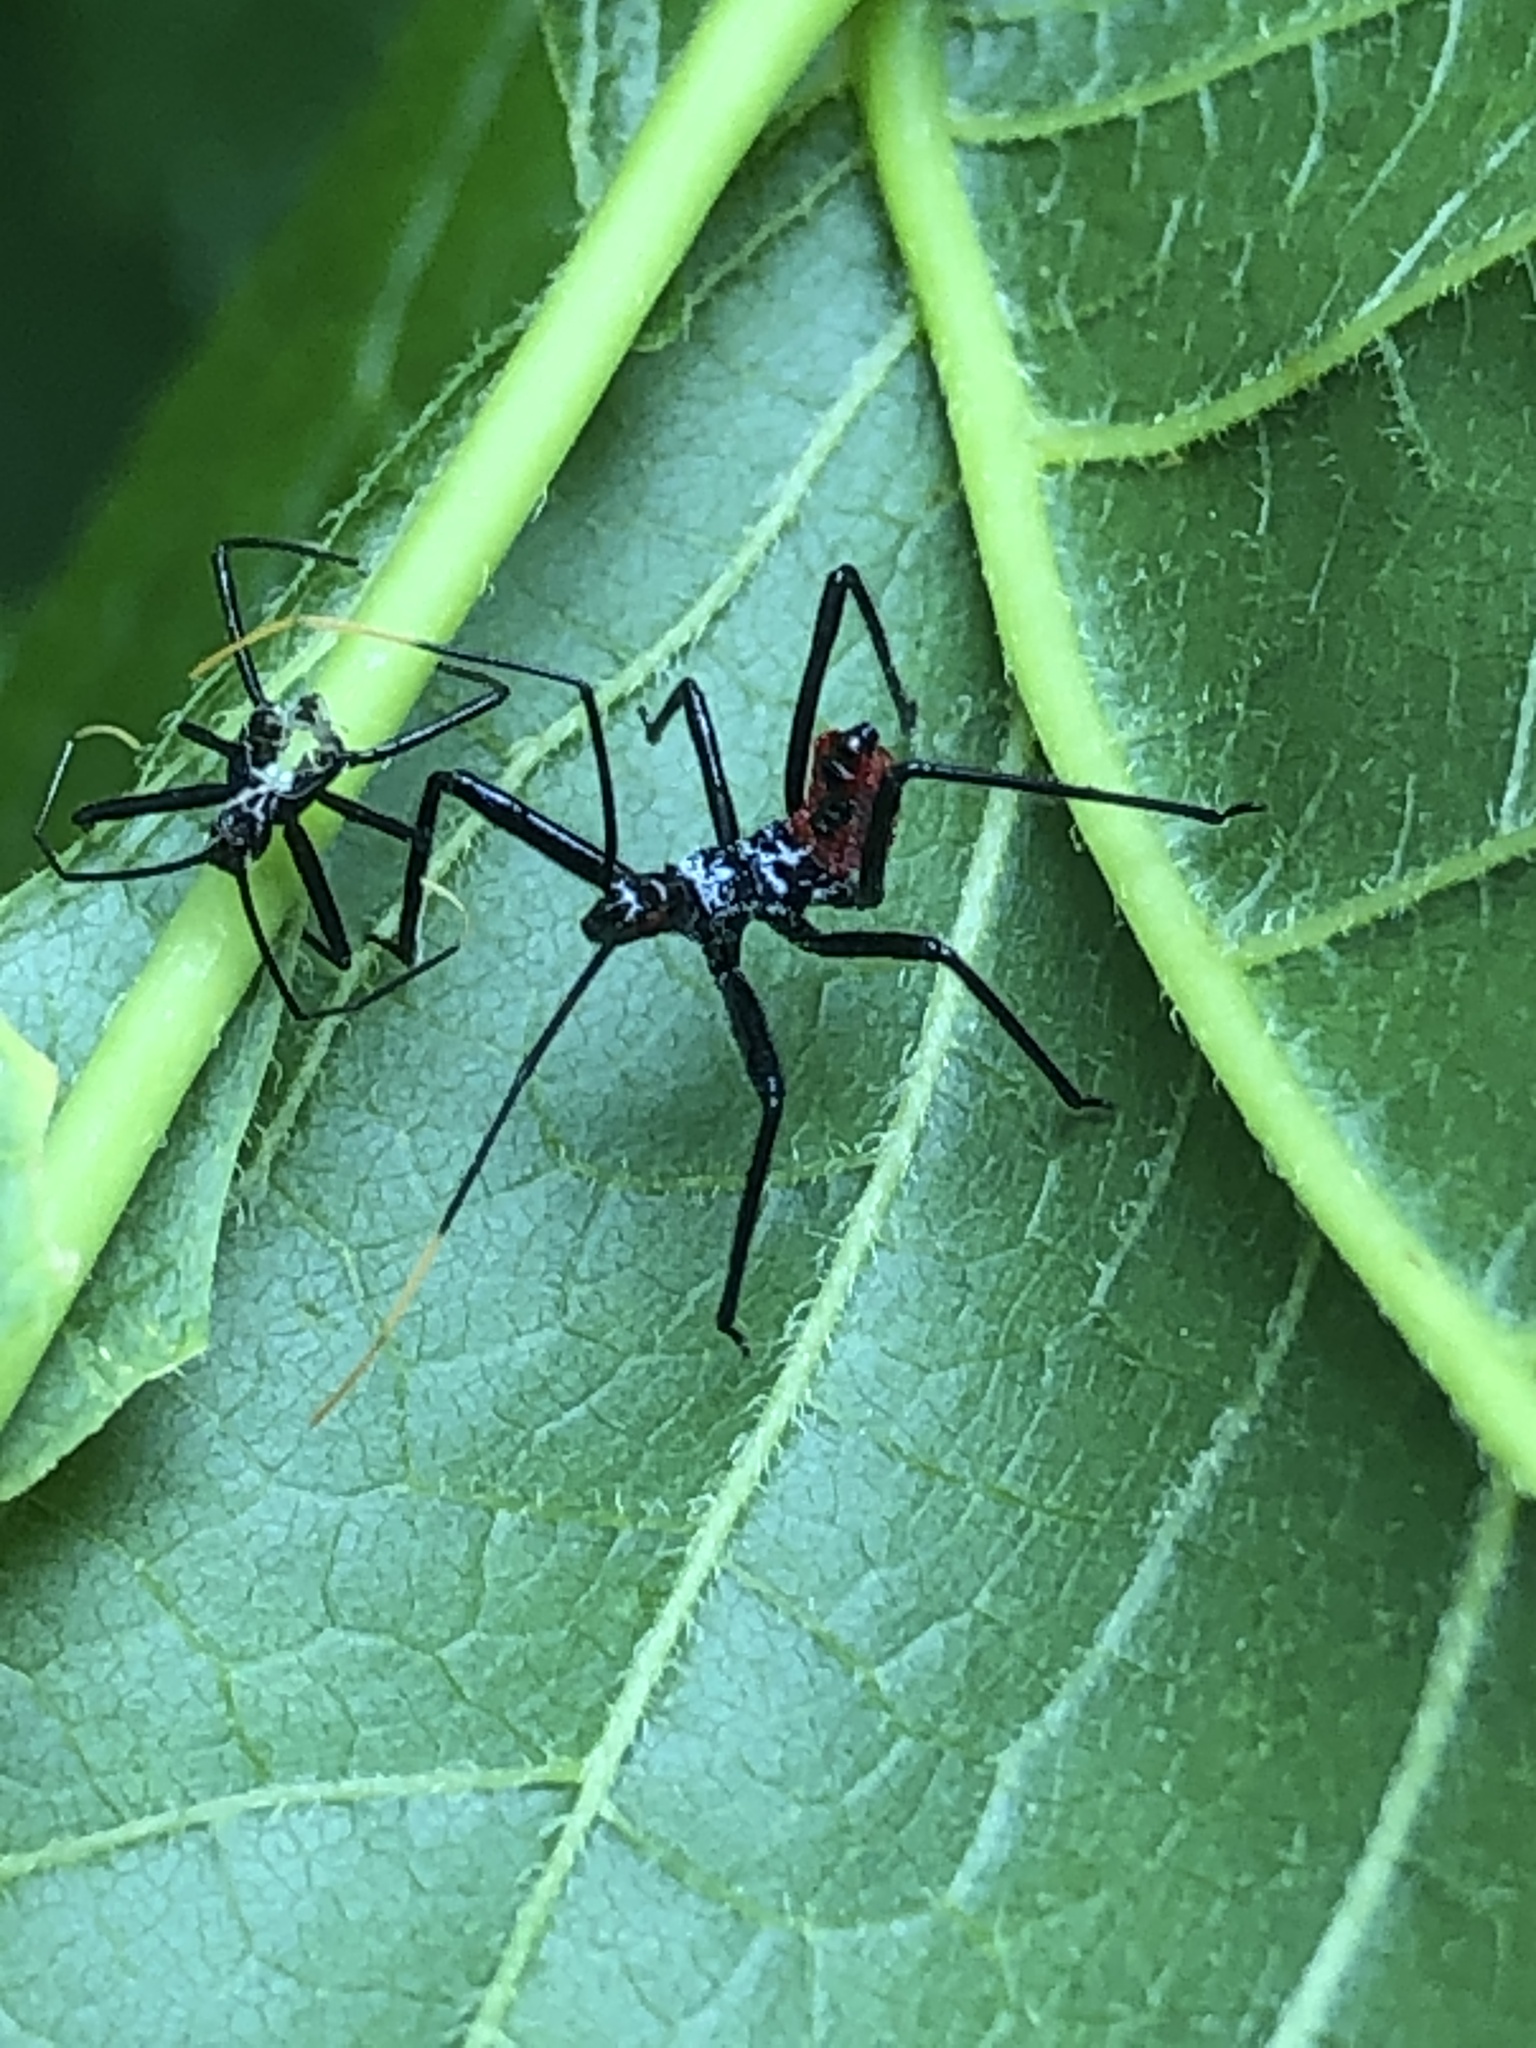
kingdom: Animalia
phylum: Arthropoda
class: Insecta
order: Hemiptera
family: Reduviidae
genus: Arilus
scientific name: Arilus cristatus
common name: North american wheel bug
